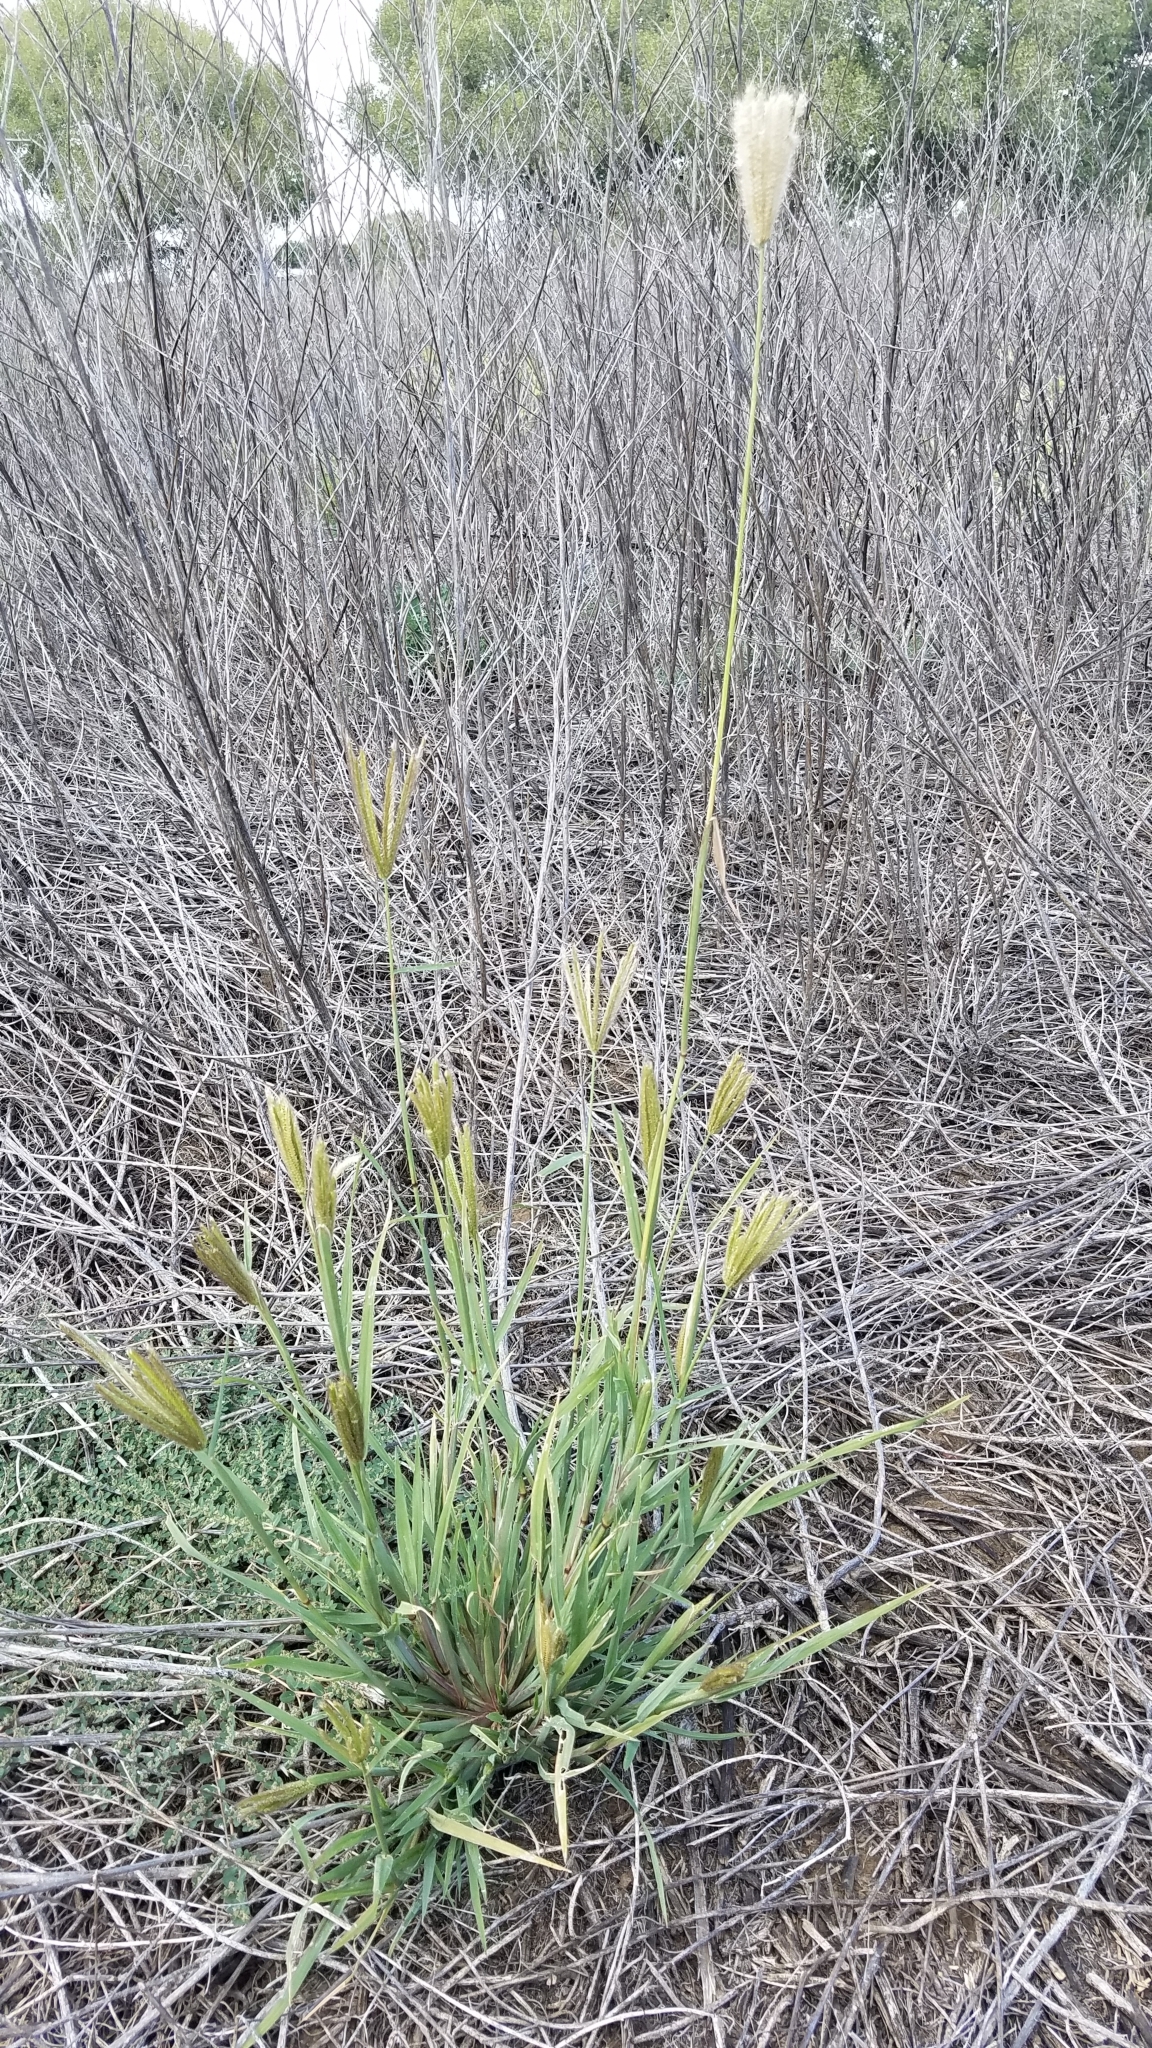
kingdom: Plantae
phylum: Tracheophyta
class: Liliopsida
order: Poales
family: Poaceae
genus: Chloris
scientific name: Chloris virgata
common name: Feathery rhodes-grass
